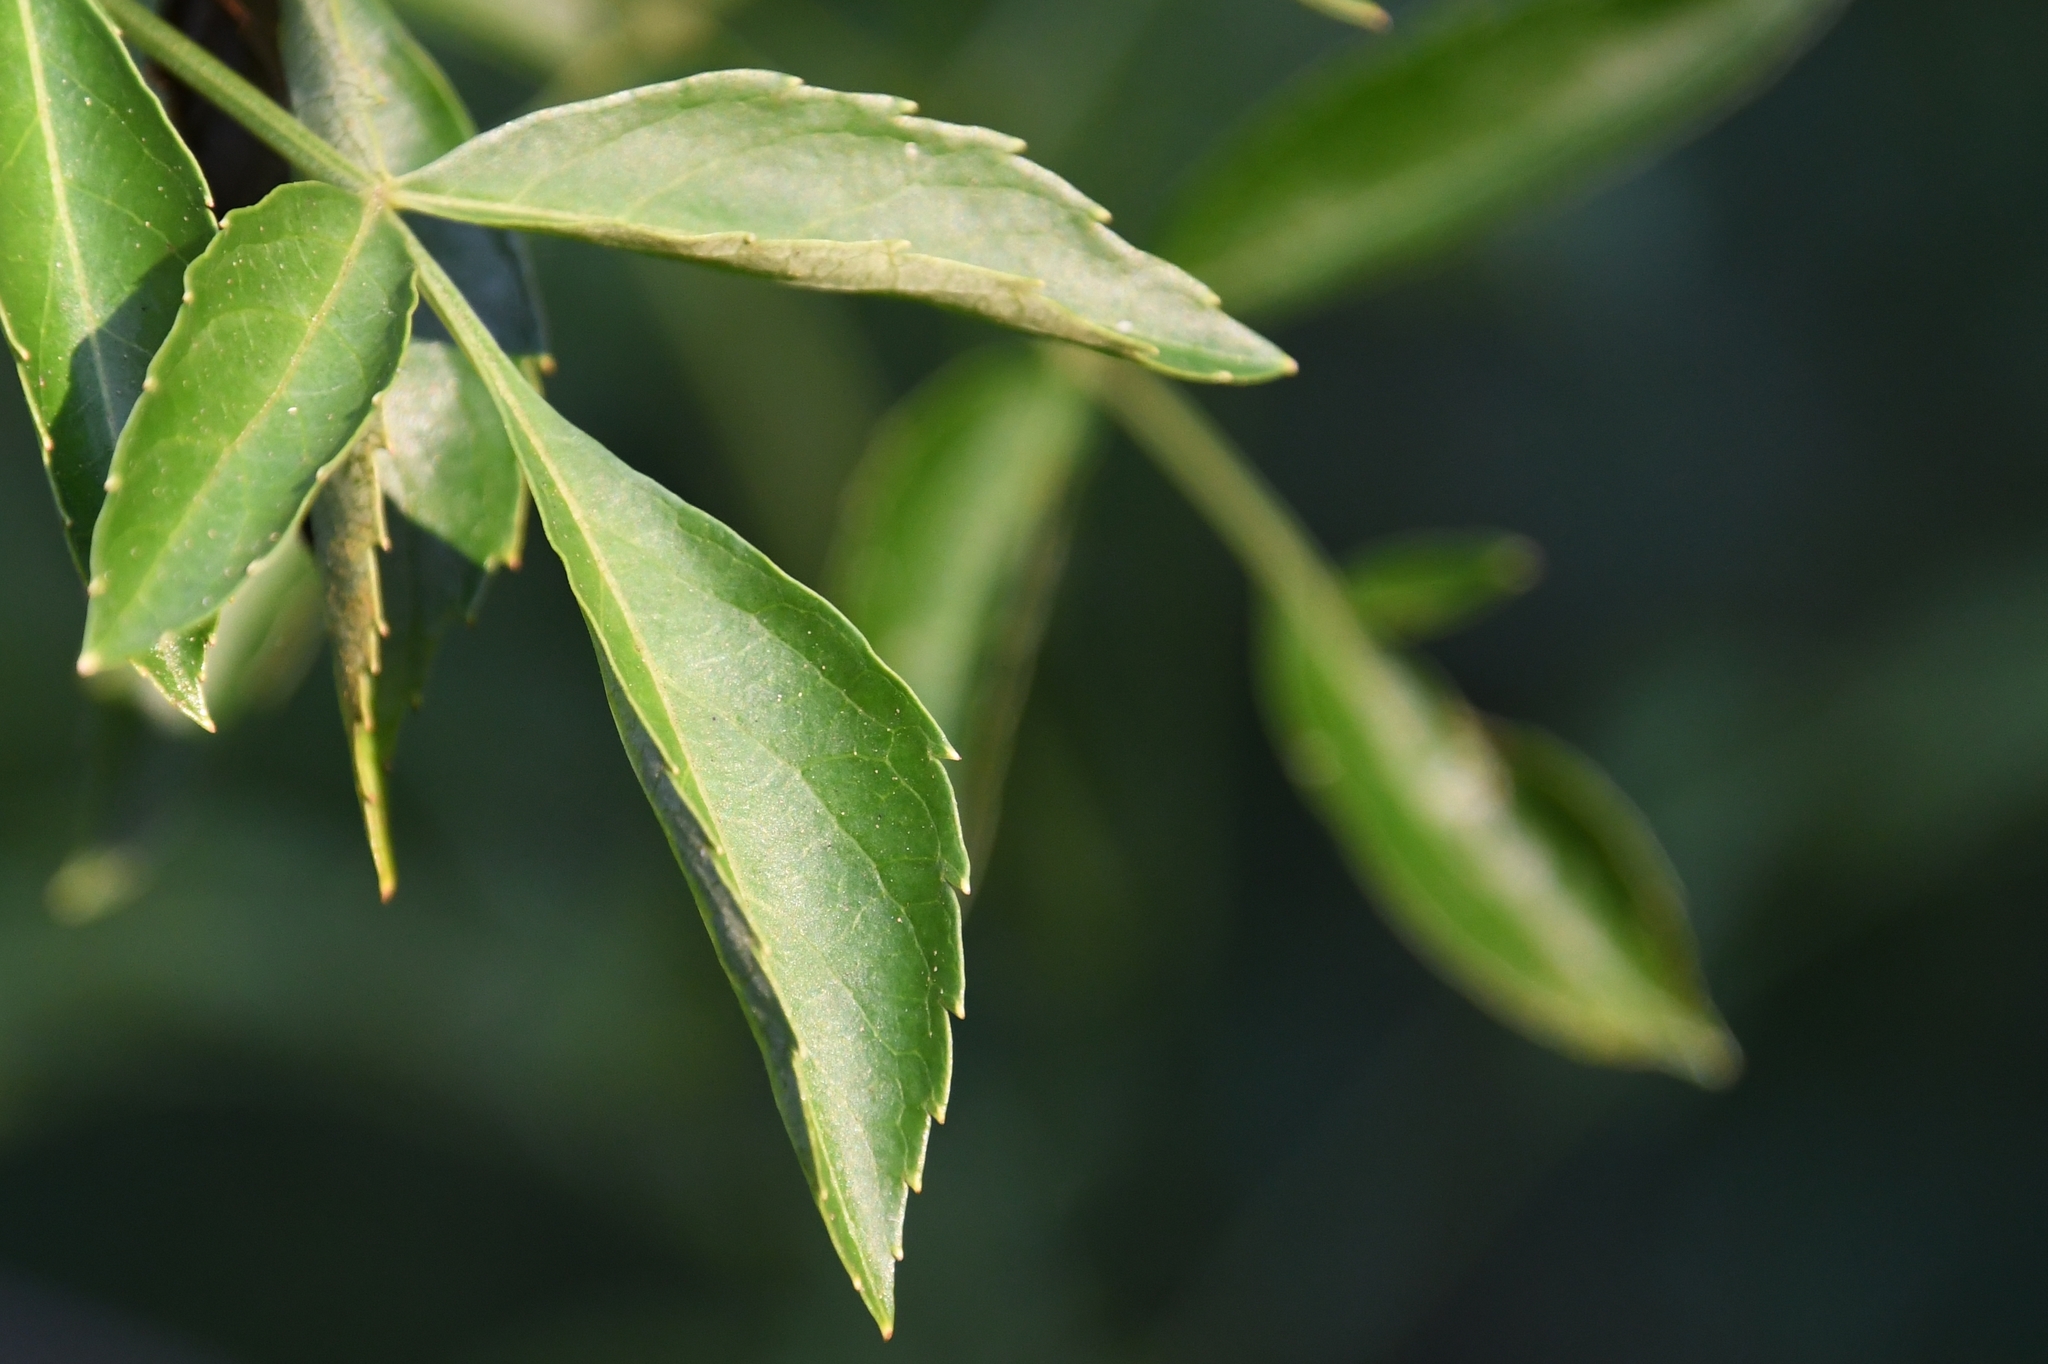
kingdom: Plantae
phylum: Tracheophyta
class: Magnoliopsida
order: Dipsacales
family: Viburnaceae
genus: Sambucus
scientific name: Sambucus canadensis
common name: American elder
